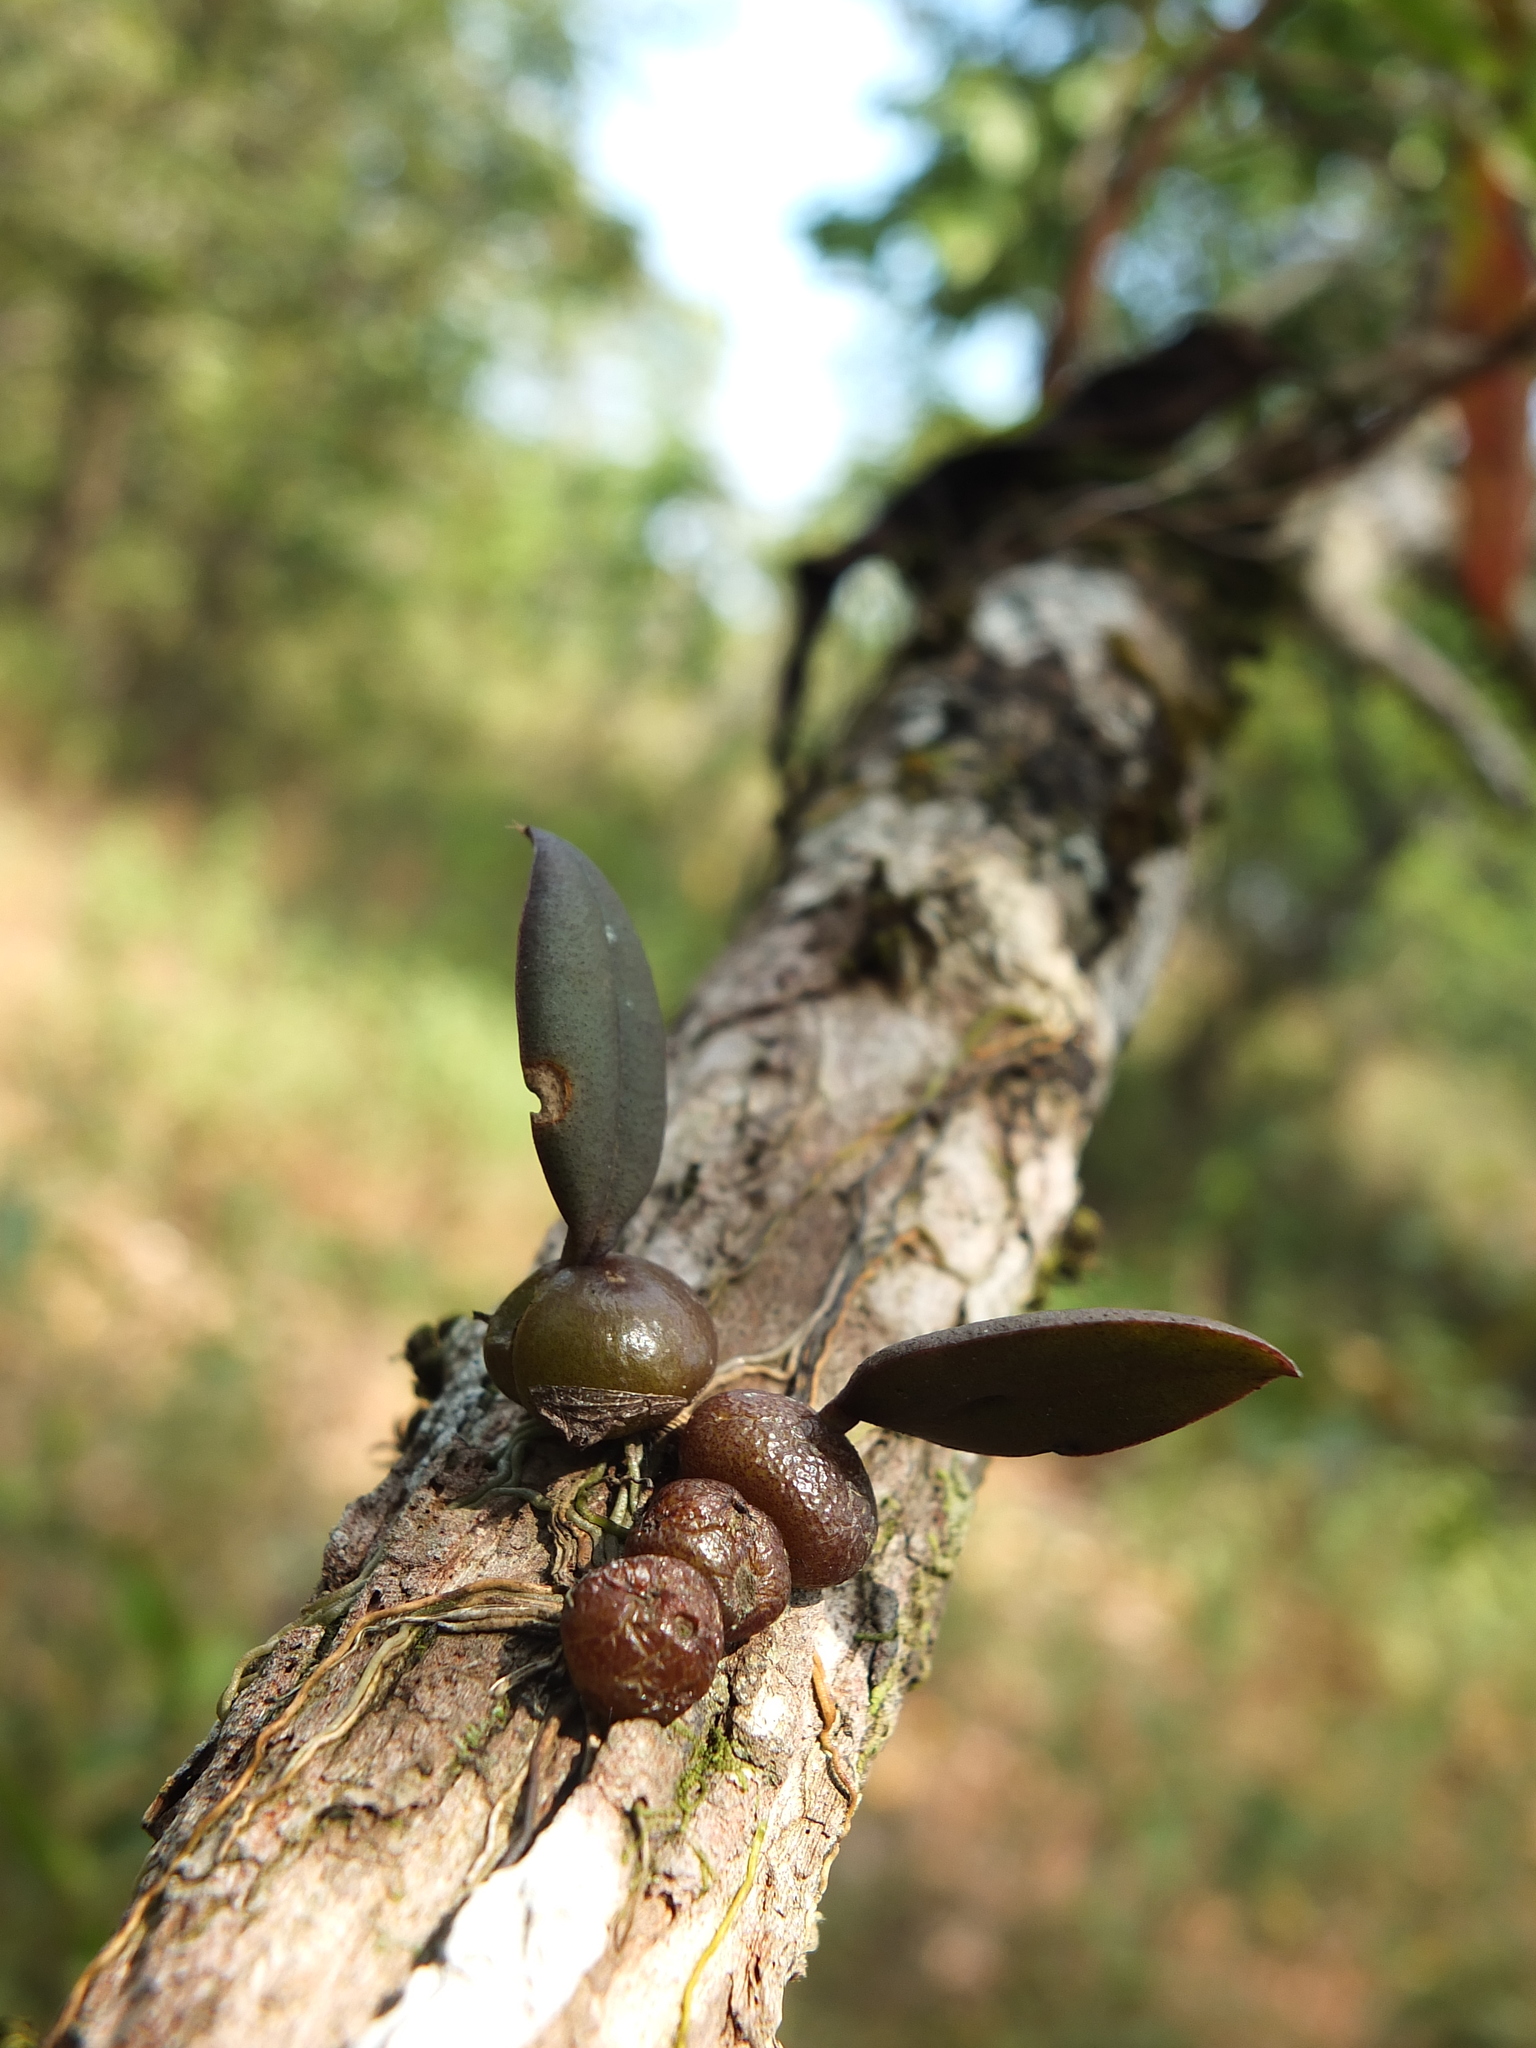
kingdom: Plantae
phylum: Tracheophyta
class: Liliopsida
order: Asparagales
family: Orchidaceae
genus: Bulbophyllum
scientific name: Bulbophyllum stocksii
